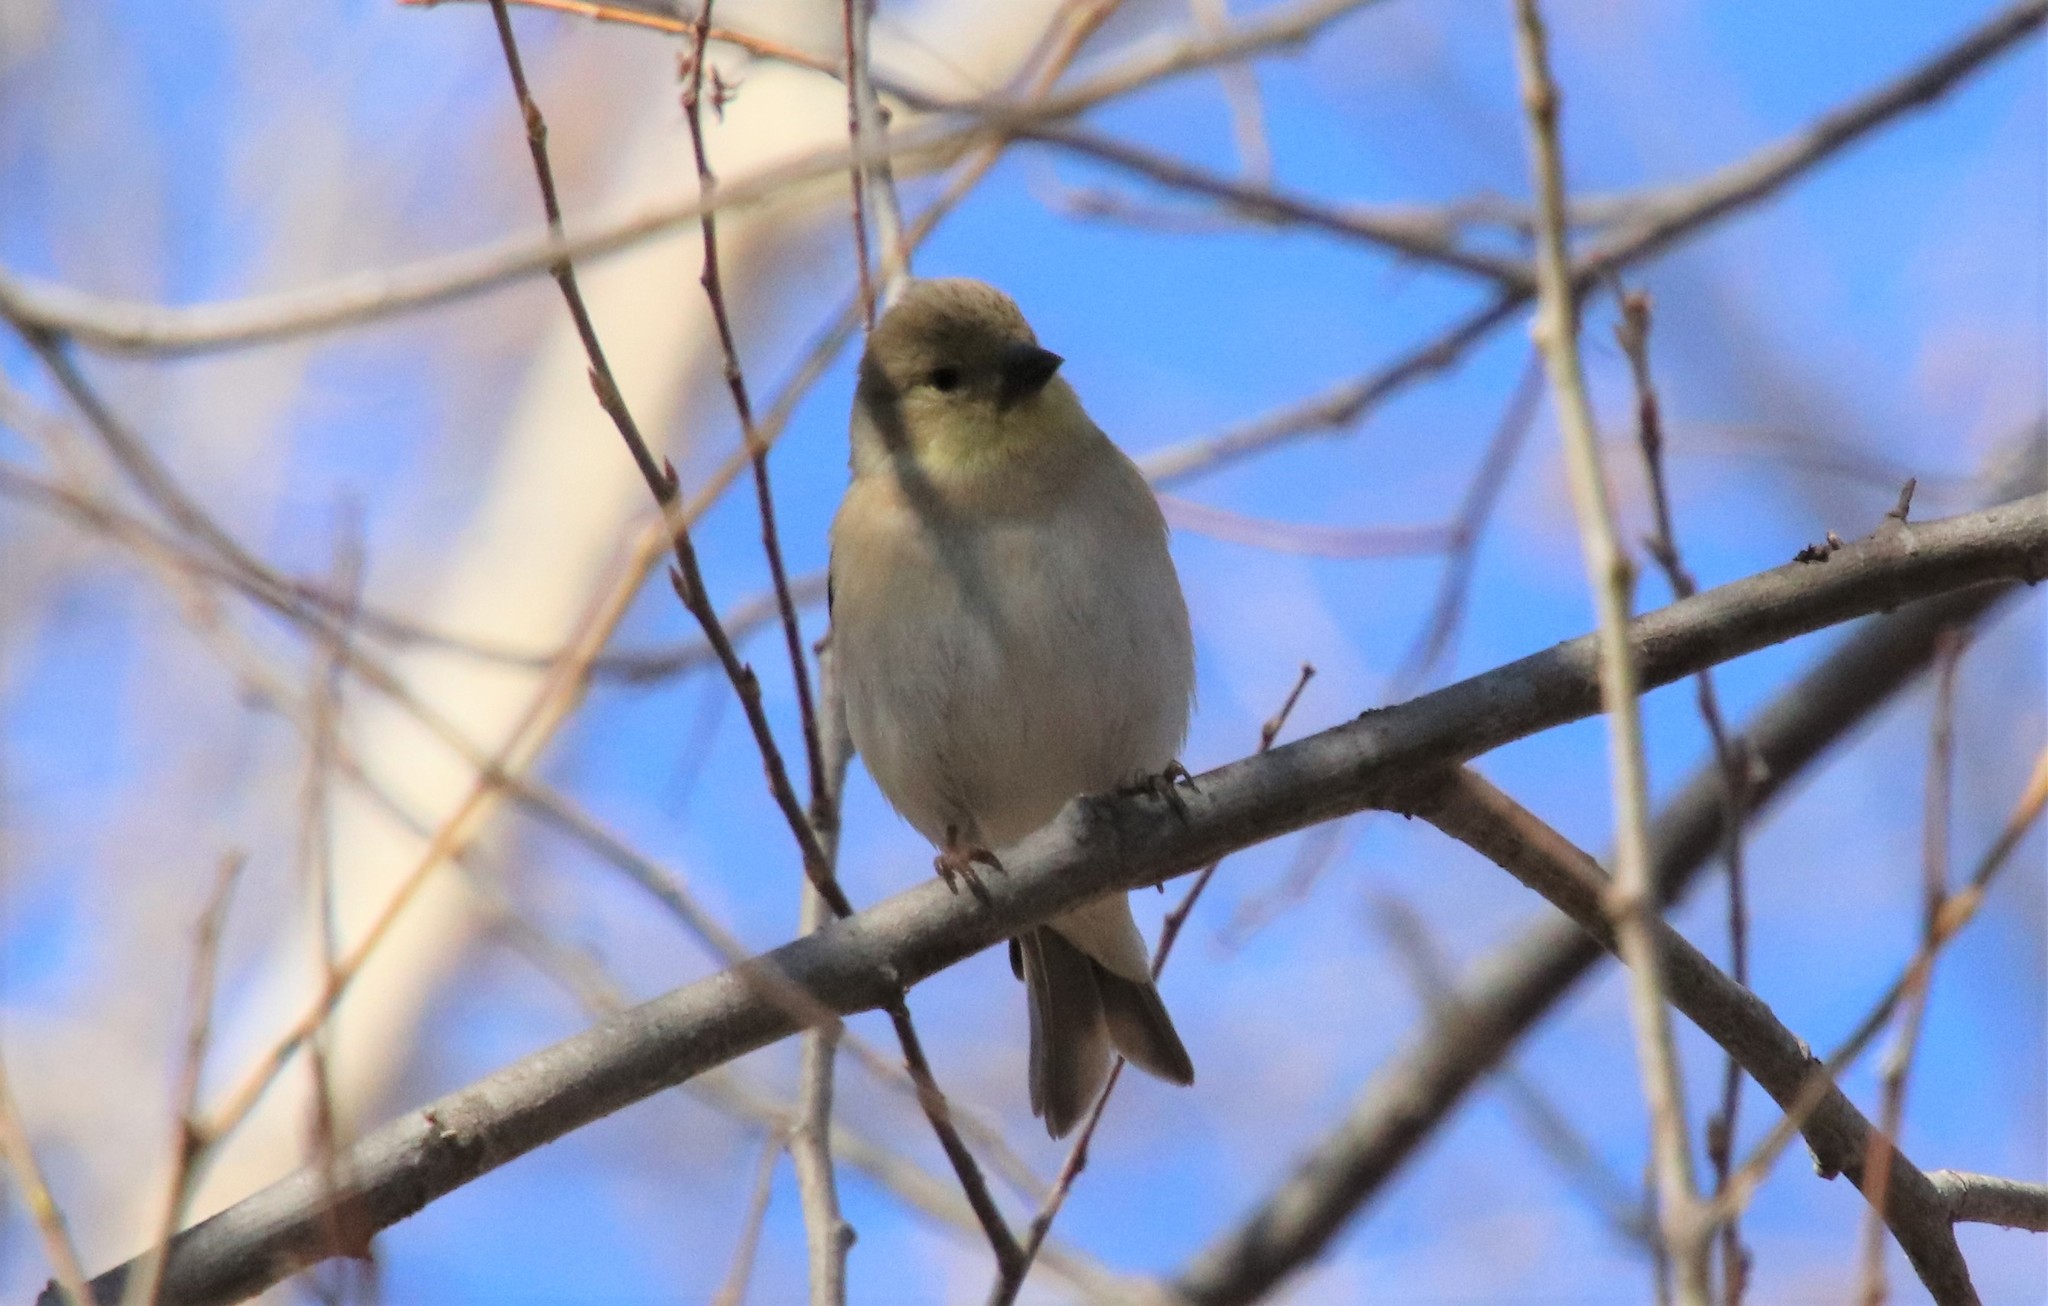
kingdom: Animalia
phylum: Chordata
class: Aves
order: Passeriformes
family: Fringillidae
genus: Spinus
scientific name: Spinus tristis
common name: American goldfinch
